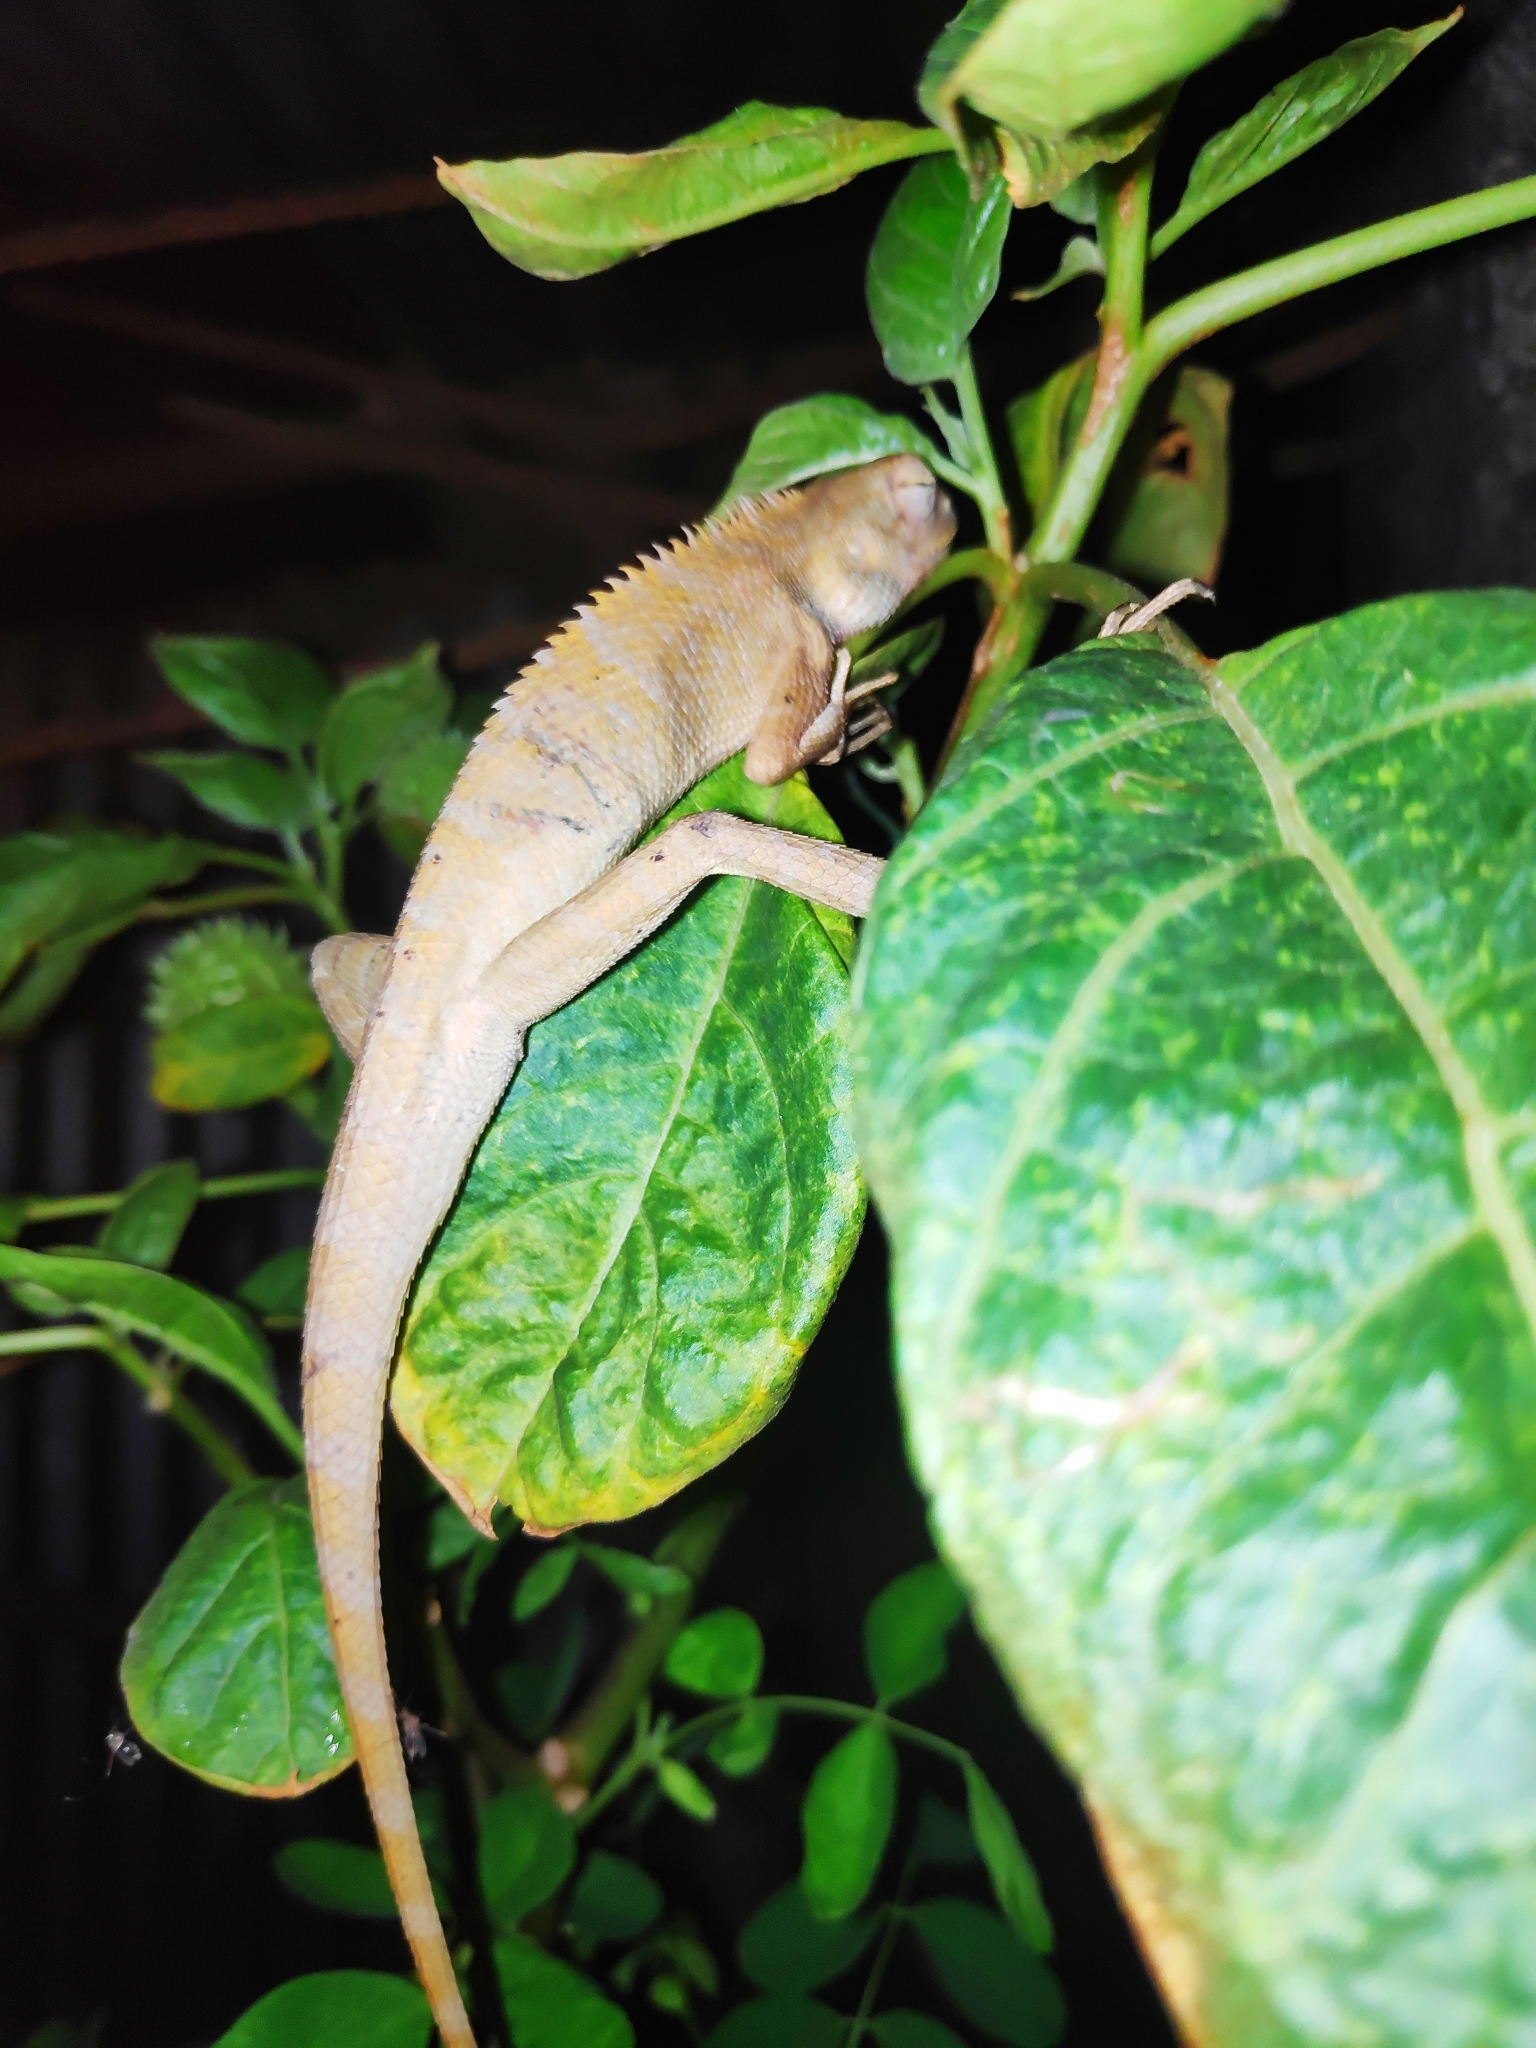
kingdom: Animalia
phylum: Chordata
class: Squamata
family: Agamidae
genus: Calotes
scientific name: Calotes versicolor
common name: Oriental garden lizard
